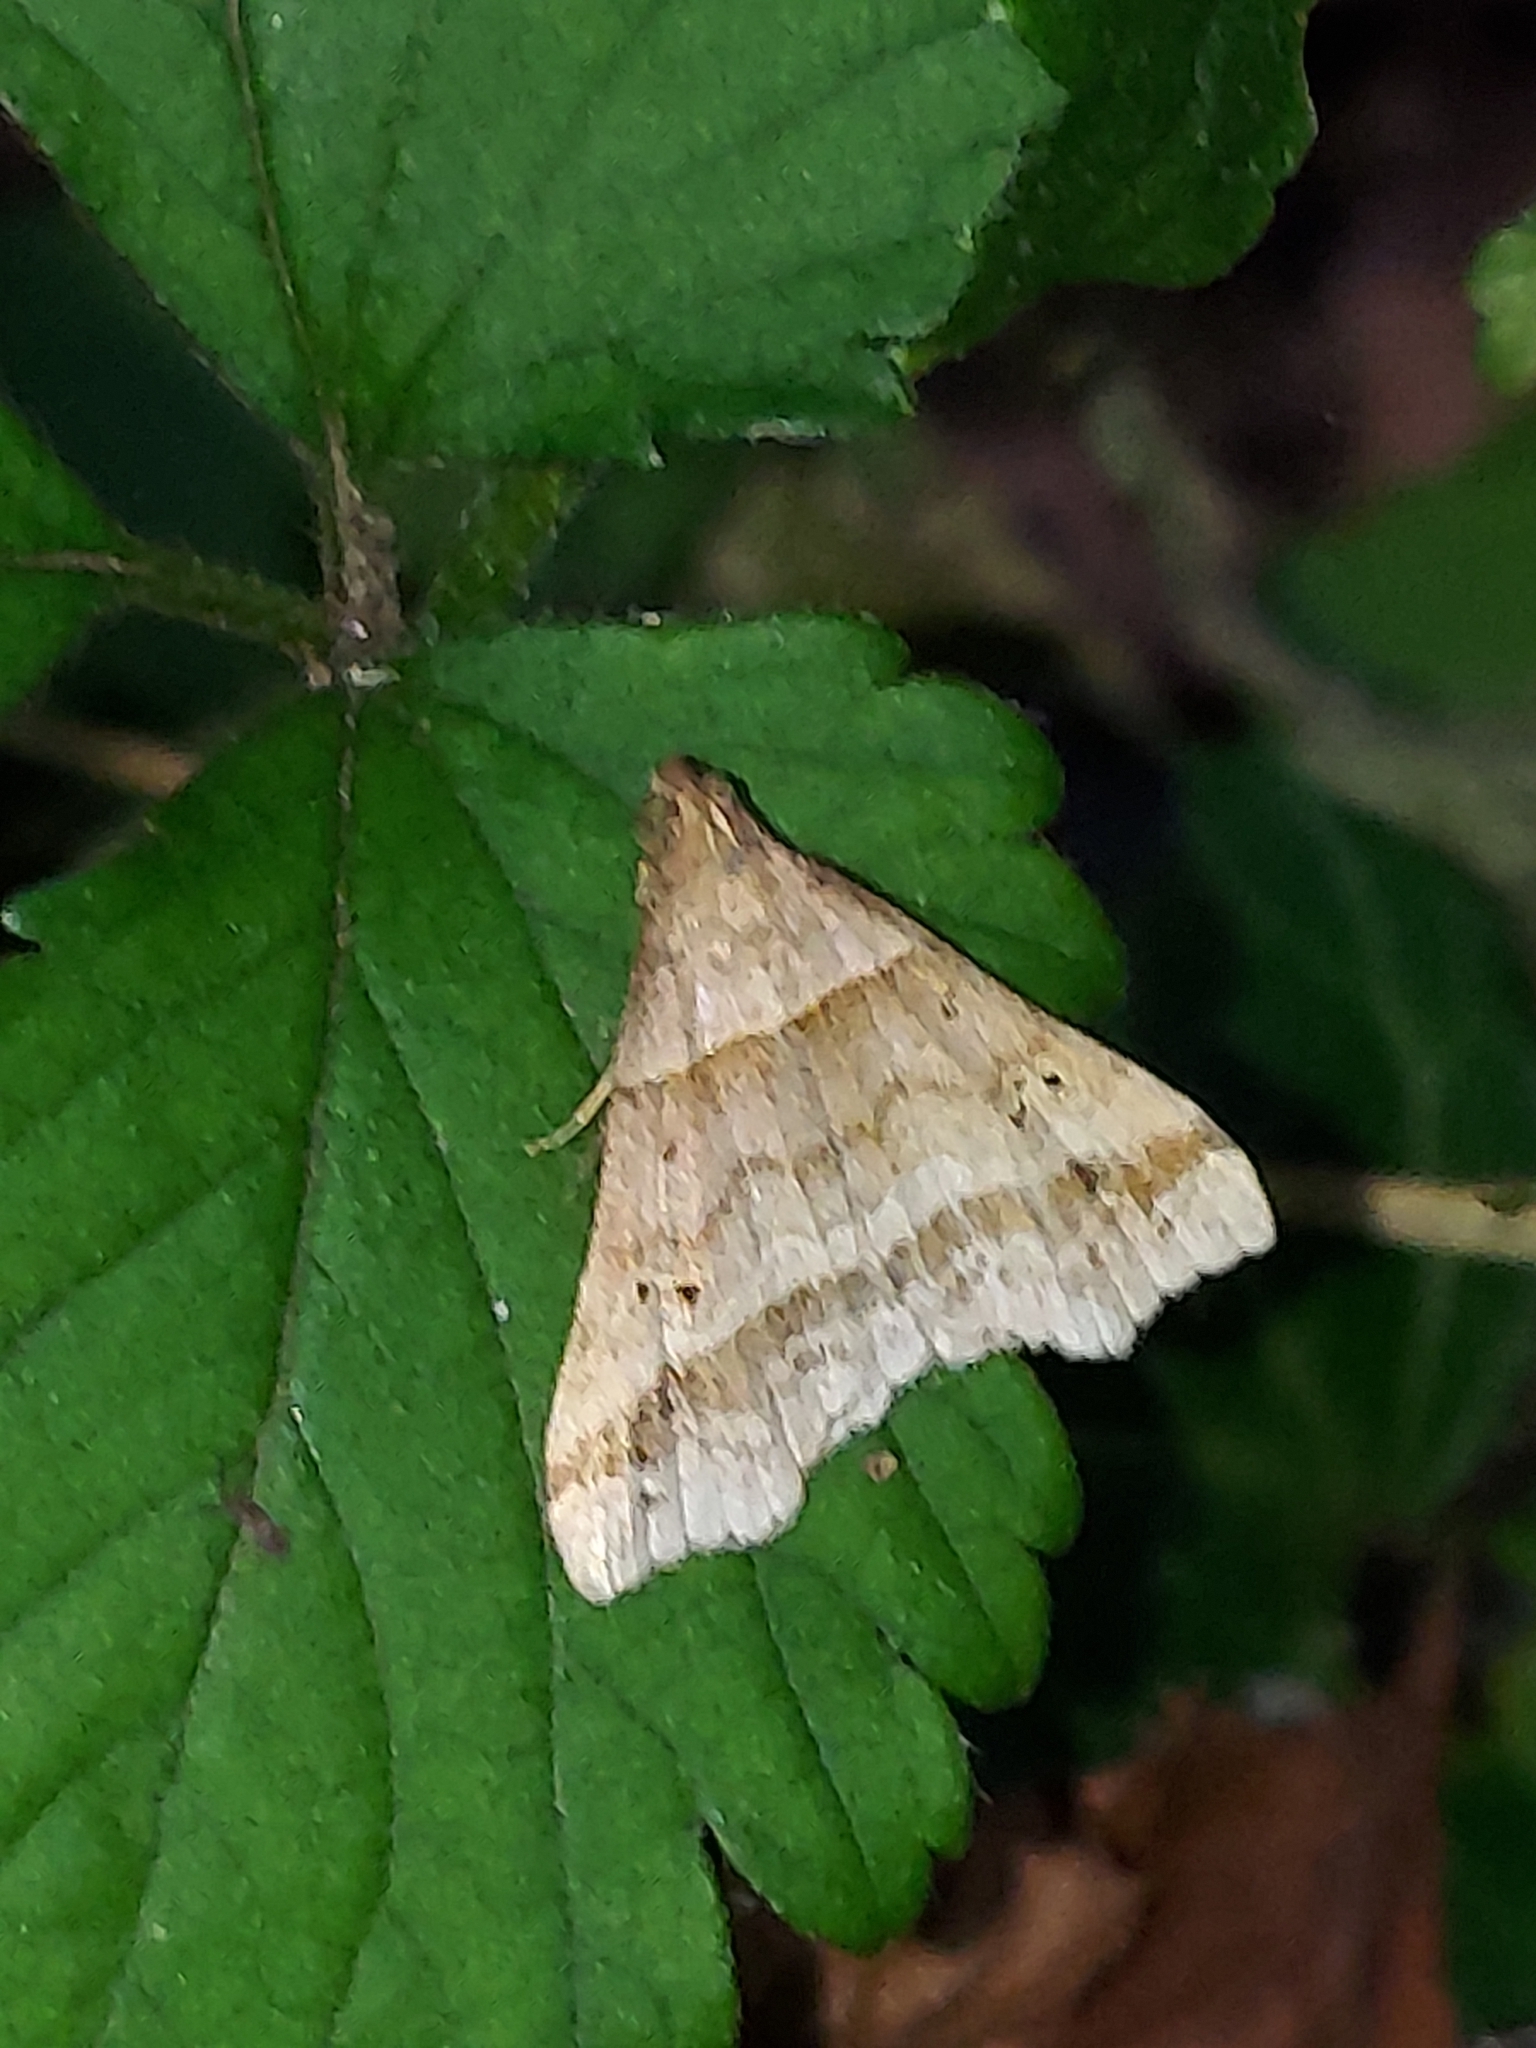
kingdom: Animalia
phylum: Arthropoda
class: Insecta
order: Lepidoptera
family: Erebidae
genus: Phaeolita
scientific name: Phaeolita pyramusalis
